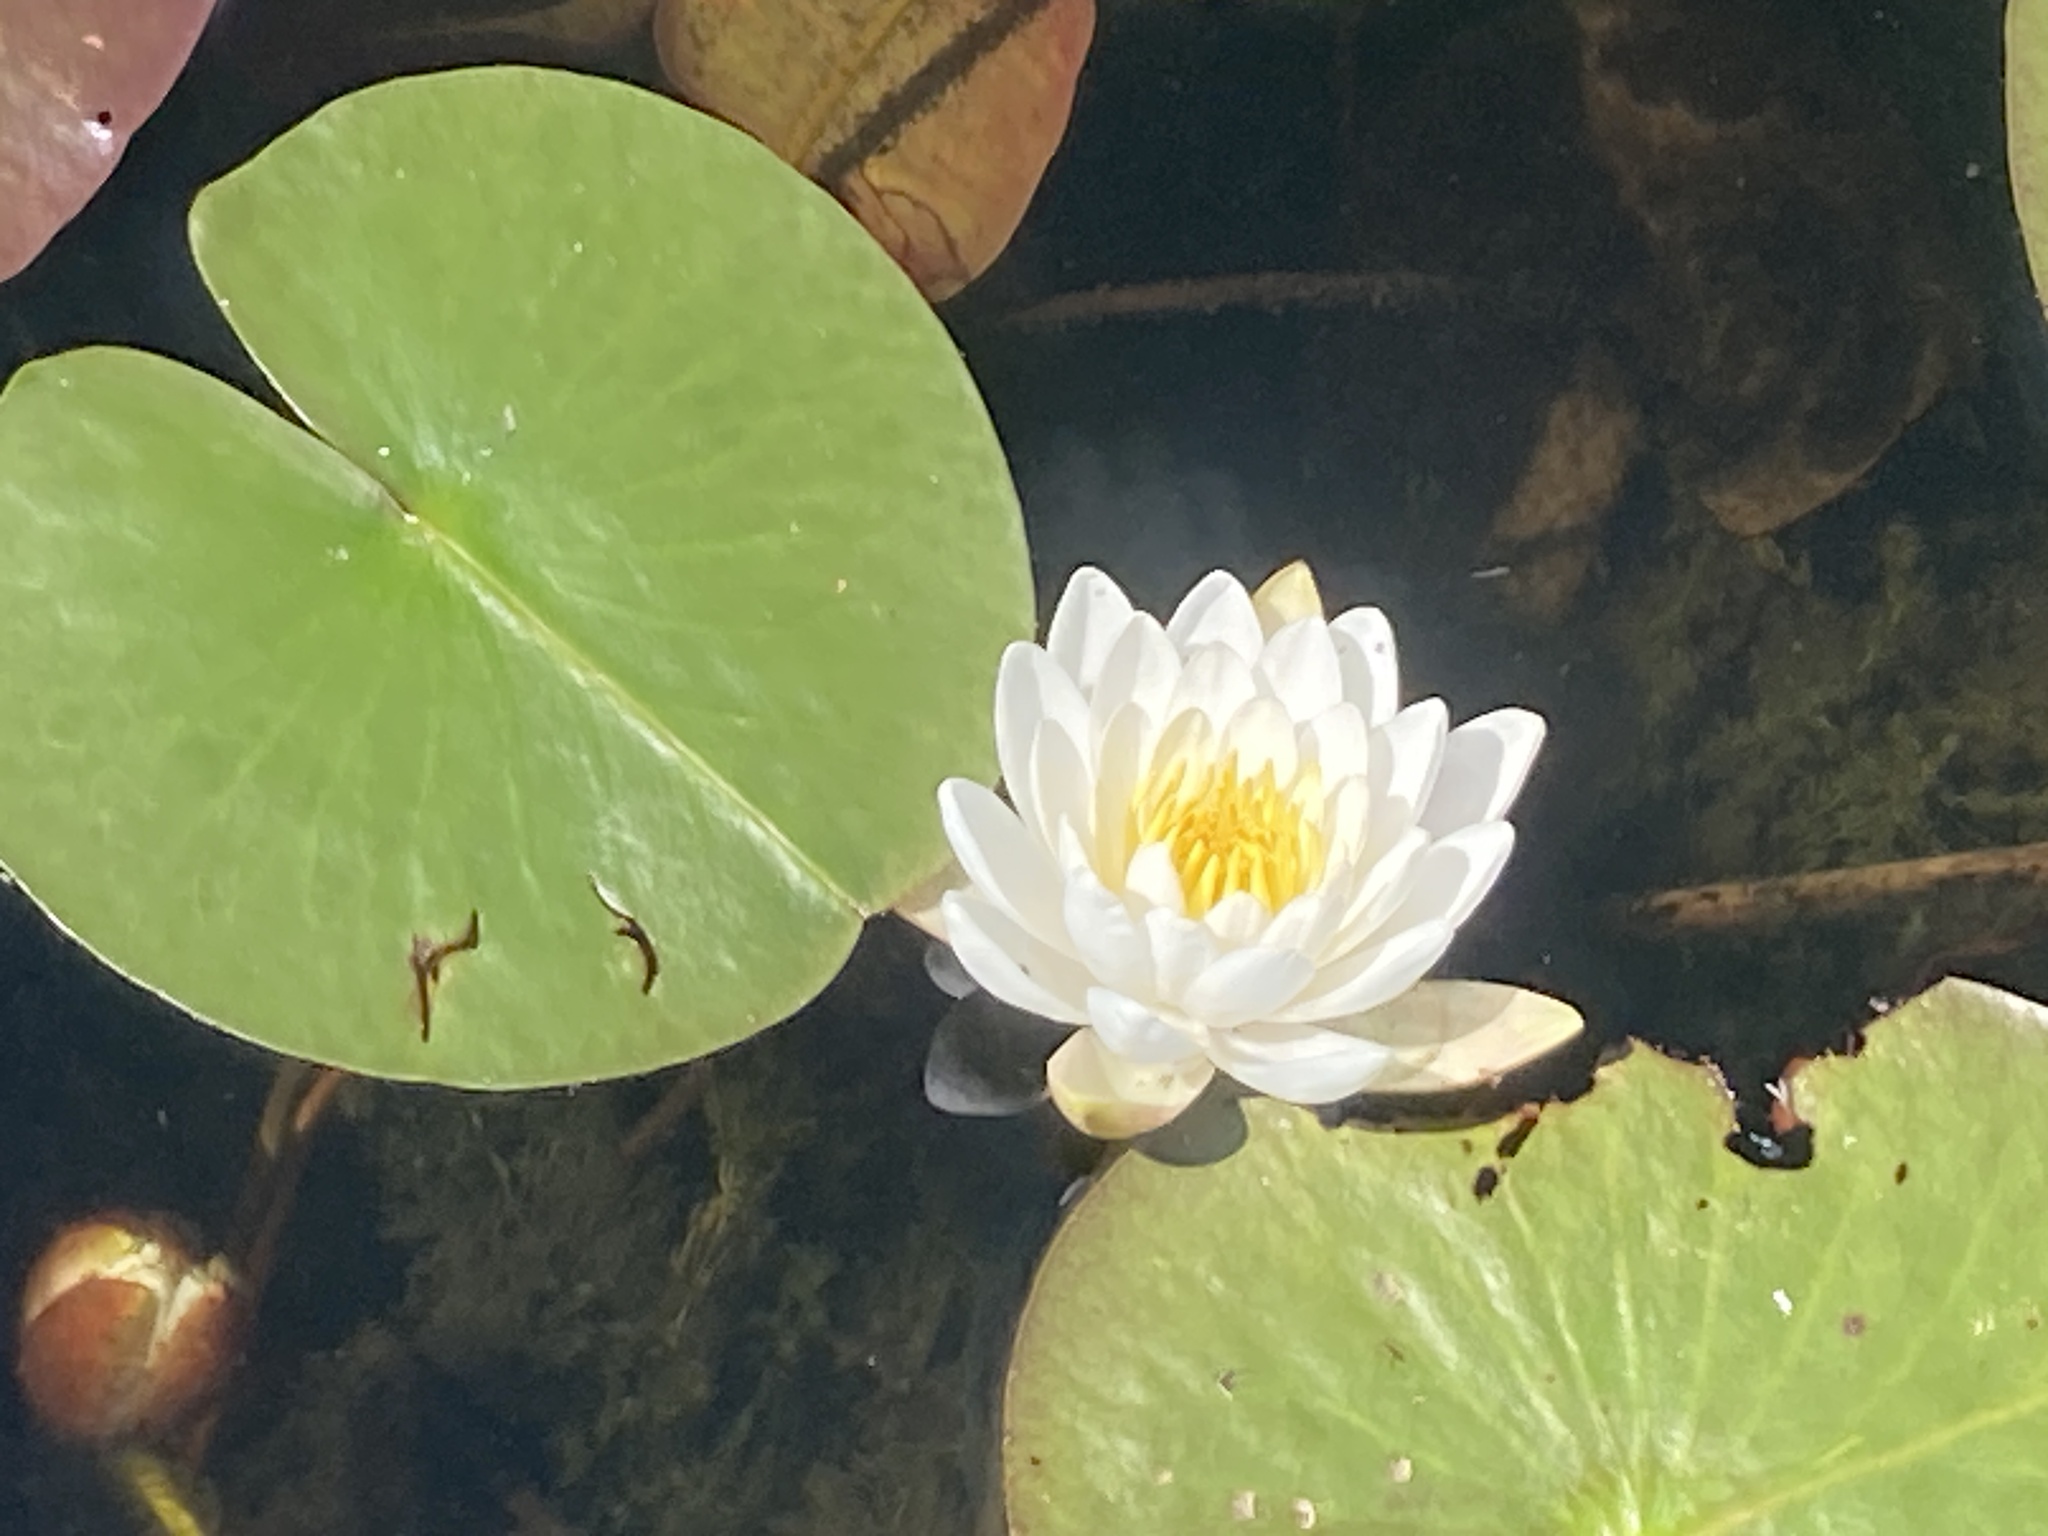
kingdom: Plantae
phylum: Tracheophyta
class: Magnoliopsida
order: Nymphaeales
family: Nymphaeaceae
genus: Nymphaea
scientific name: Nymphaea odorata
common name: Fragrant water-lily
